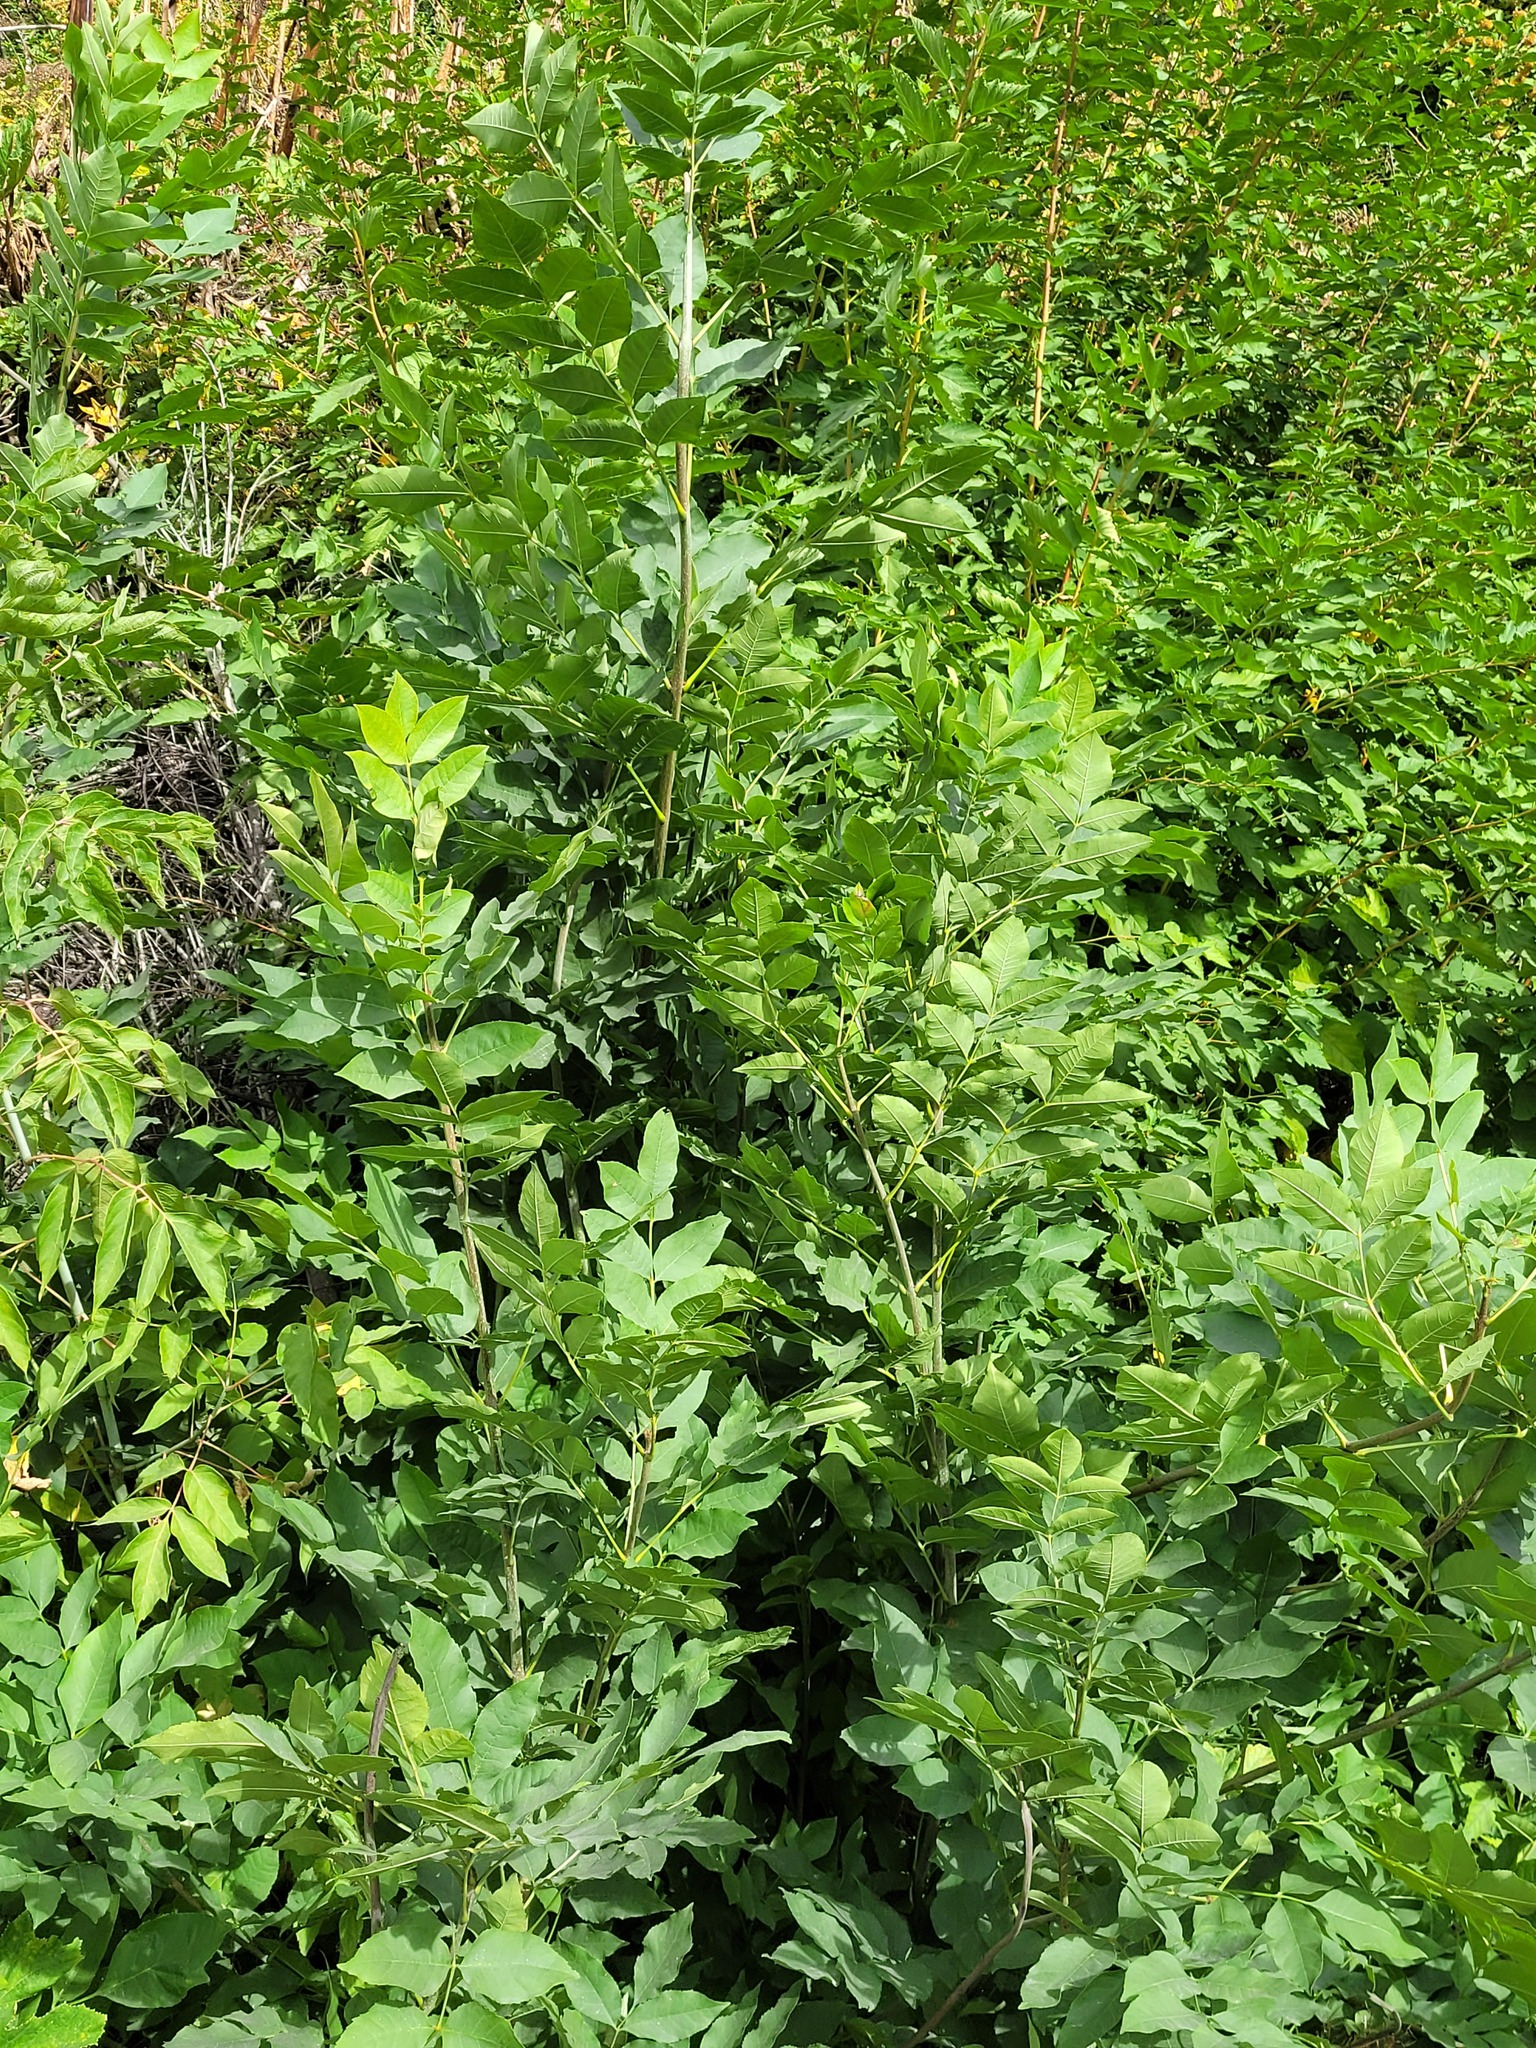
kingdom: Plantae
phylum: Tracheophyta
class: Magnoliopsida
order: Lamiales
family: Oleaceae
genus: Fraxinus
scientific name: Fraxinus pennsylvanica
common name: Green ash
